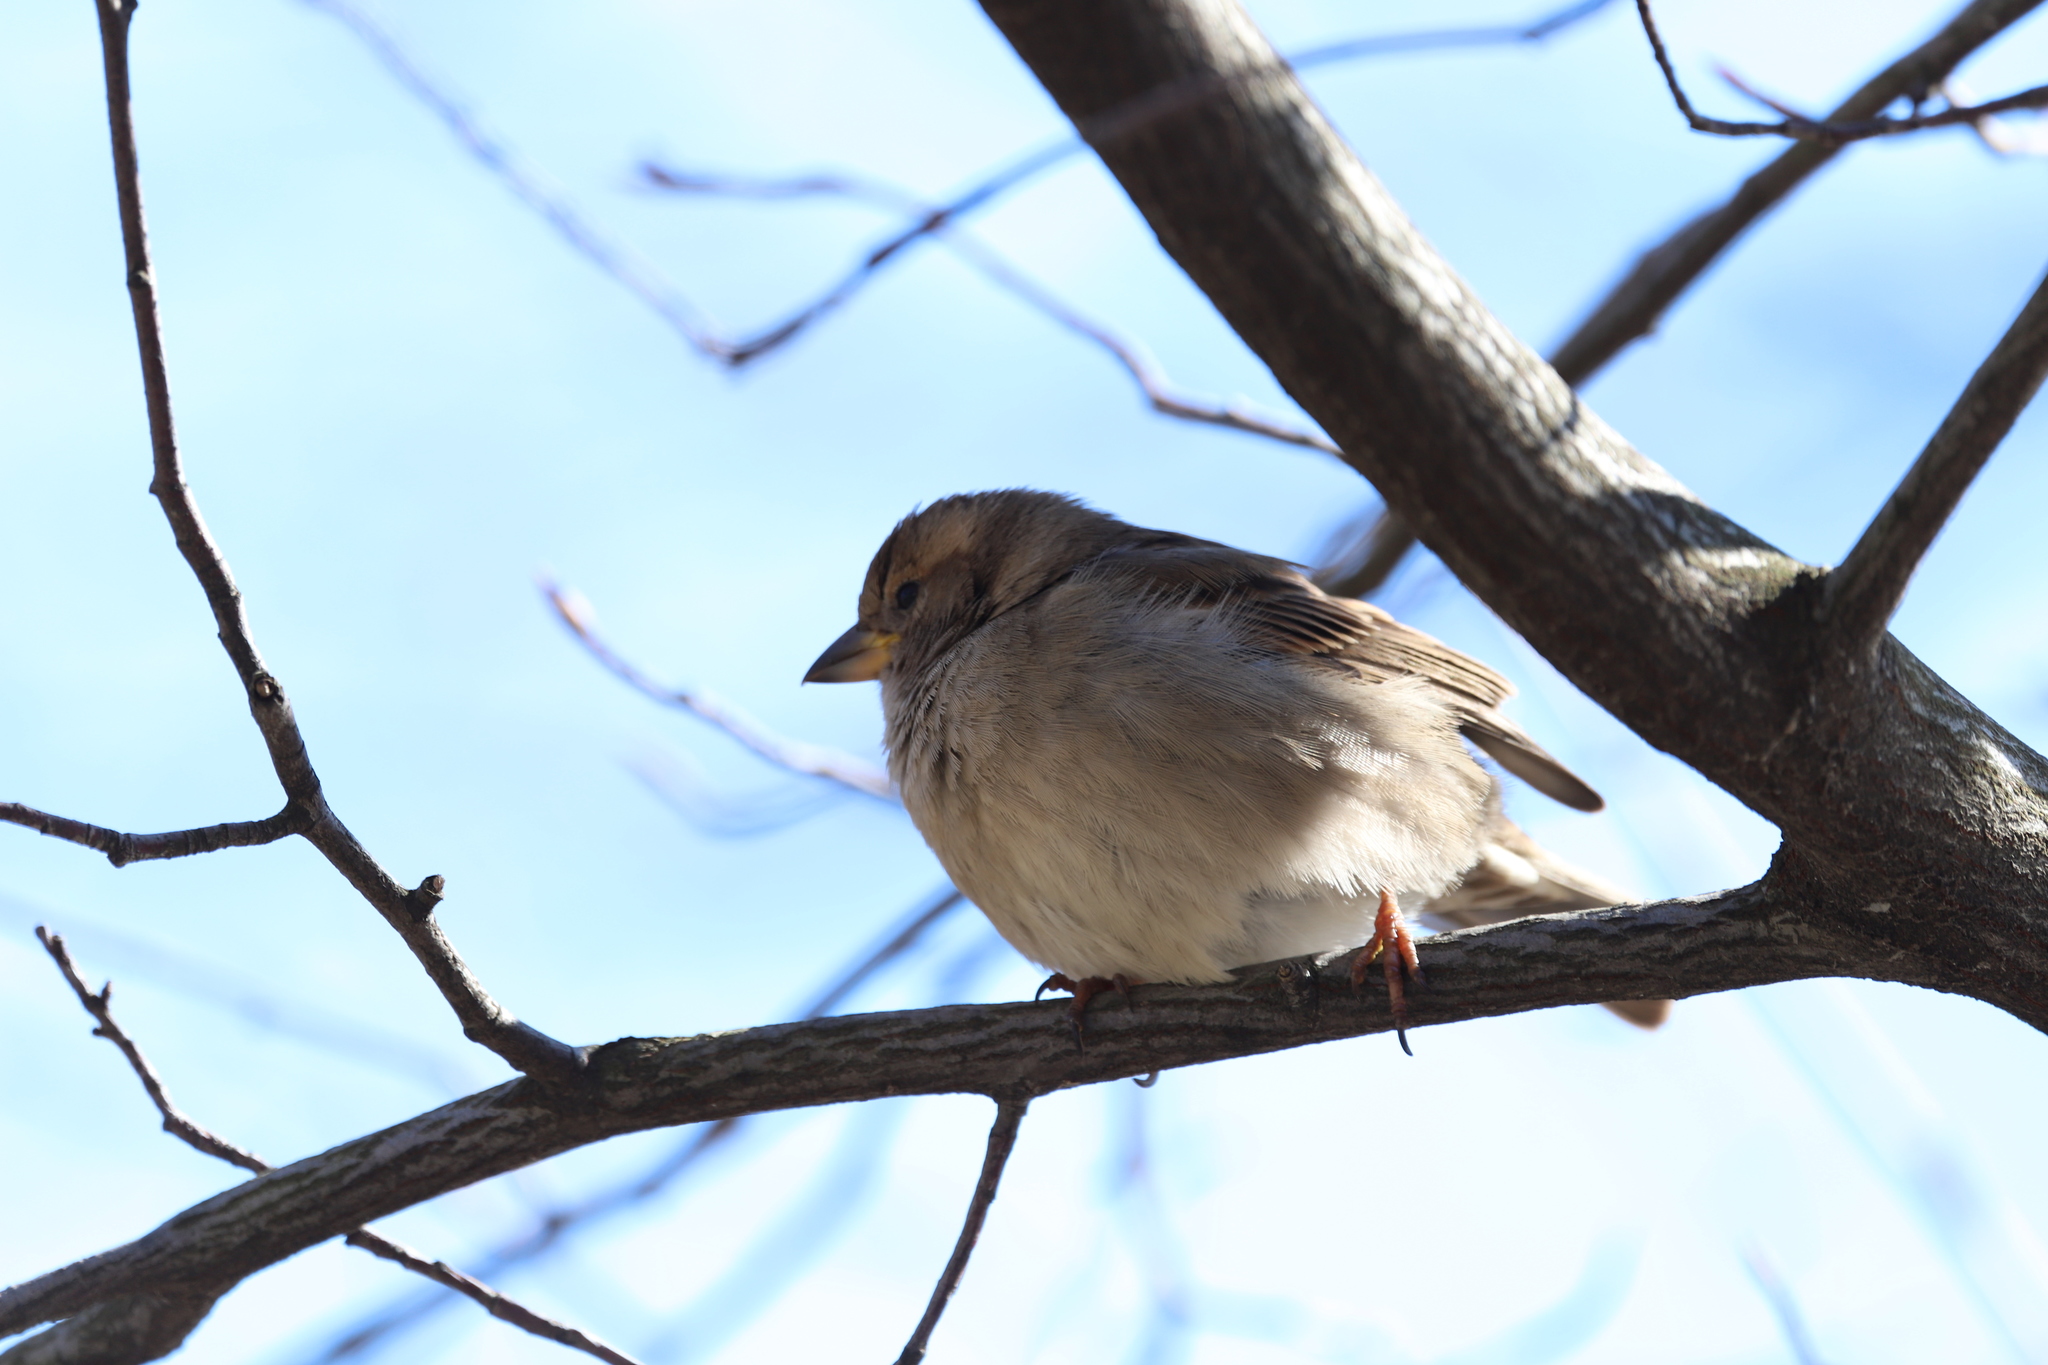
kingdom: Animalia
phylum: Chordata
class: Aves
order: Passeriformes
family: Passeridae
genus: Passer
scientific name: Passer domesticus
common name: House sparrow
